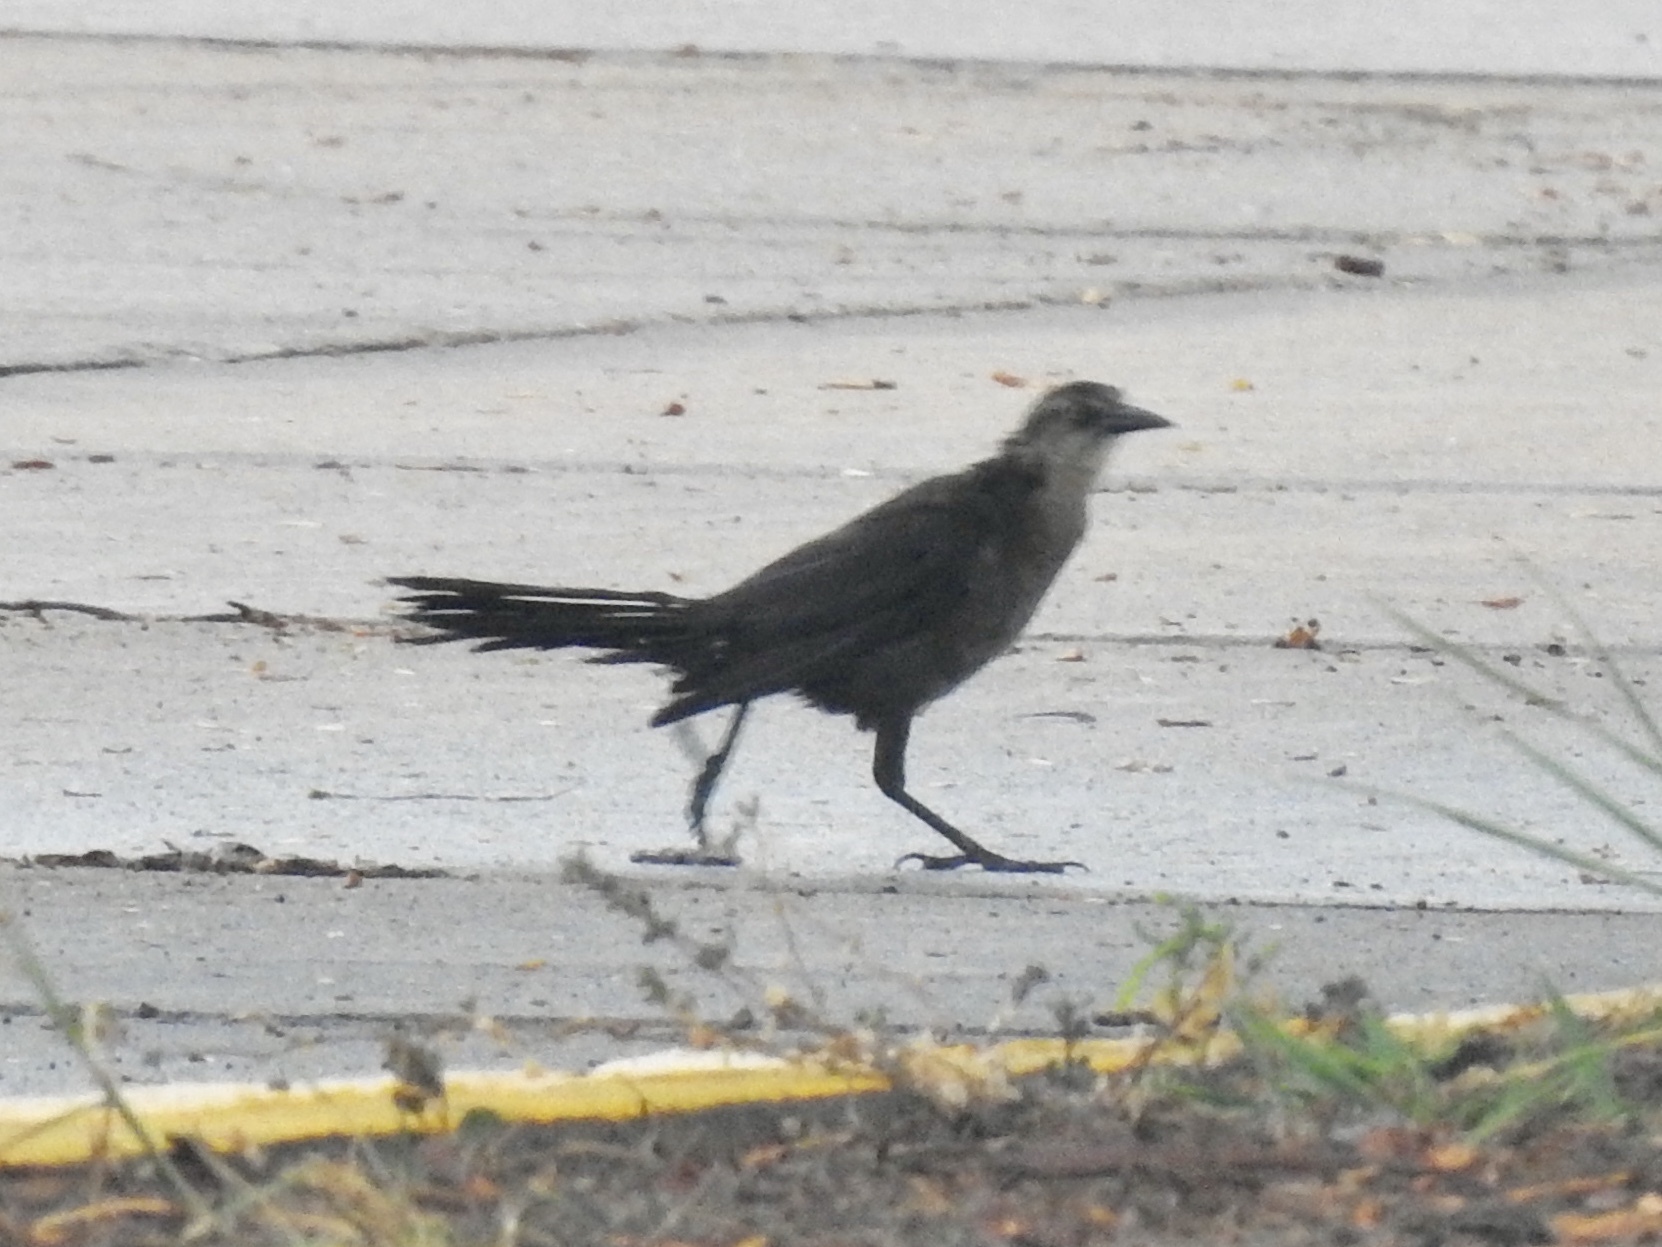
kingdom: Animalia
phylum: Chordata
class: Aves
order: Passeriformes
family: Icteridae
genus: Quiscalus
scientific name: Quiscalus mexicanus
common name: Great-tailed grackle
